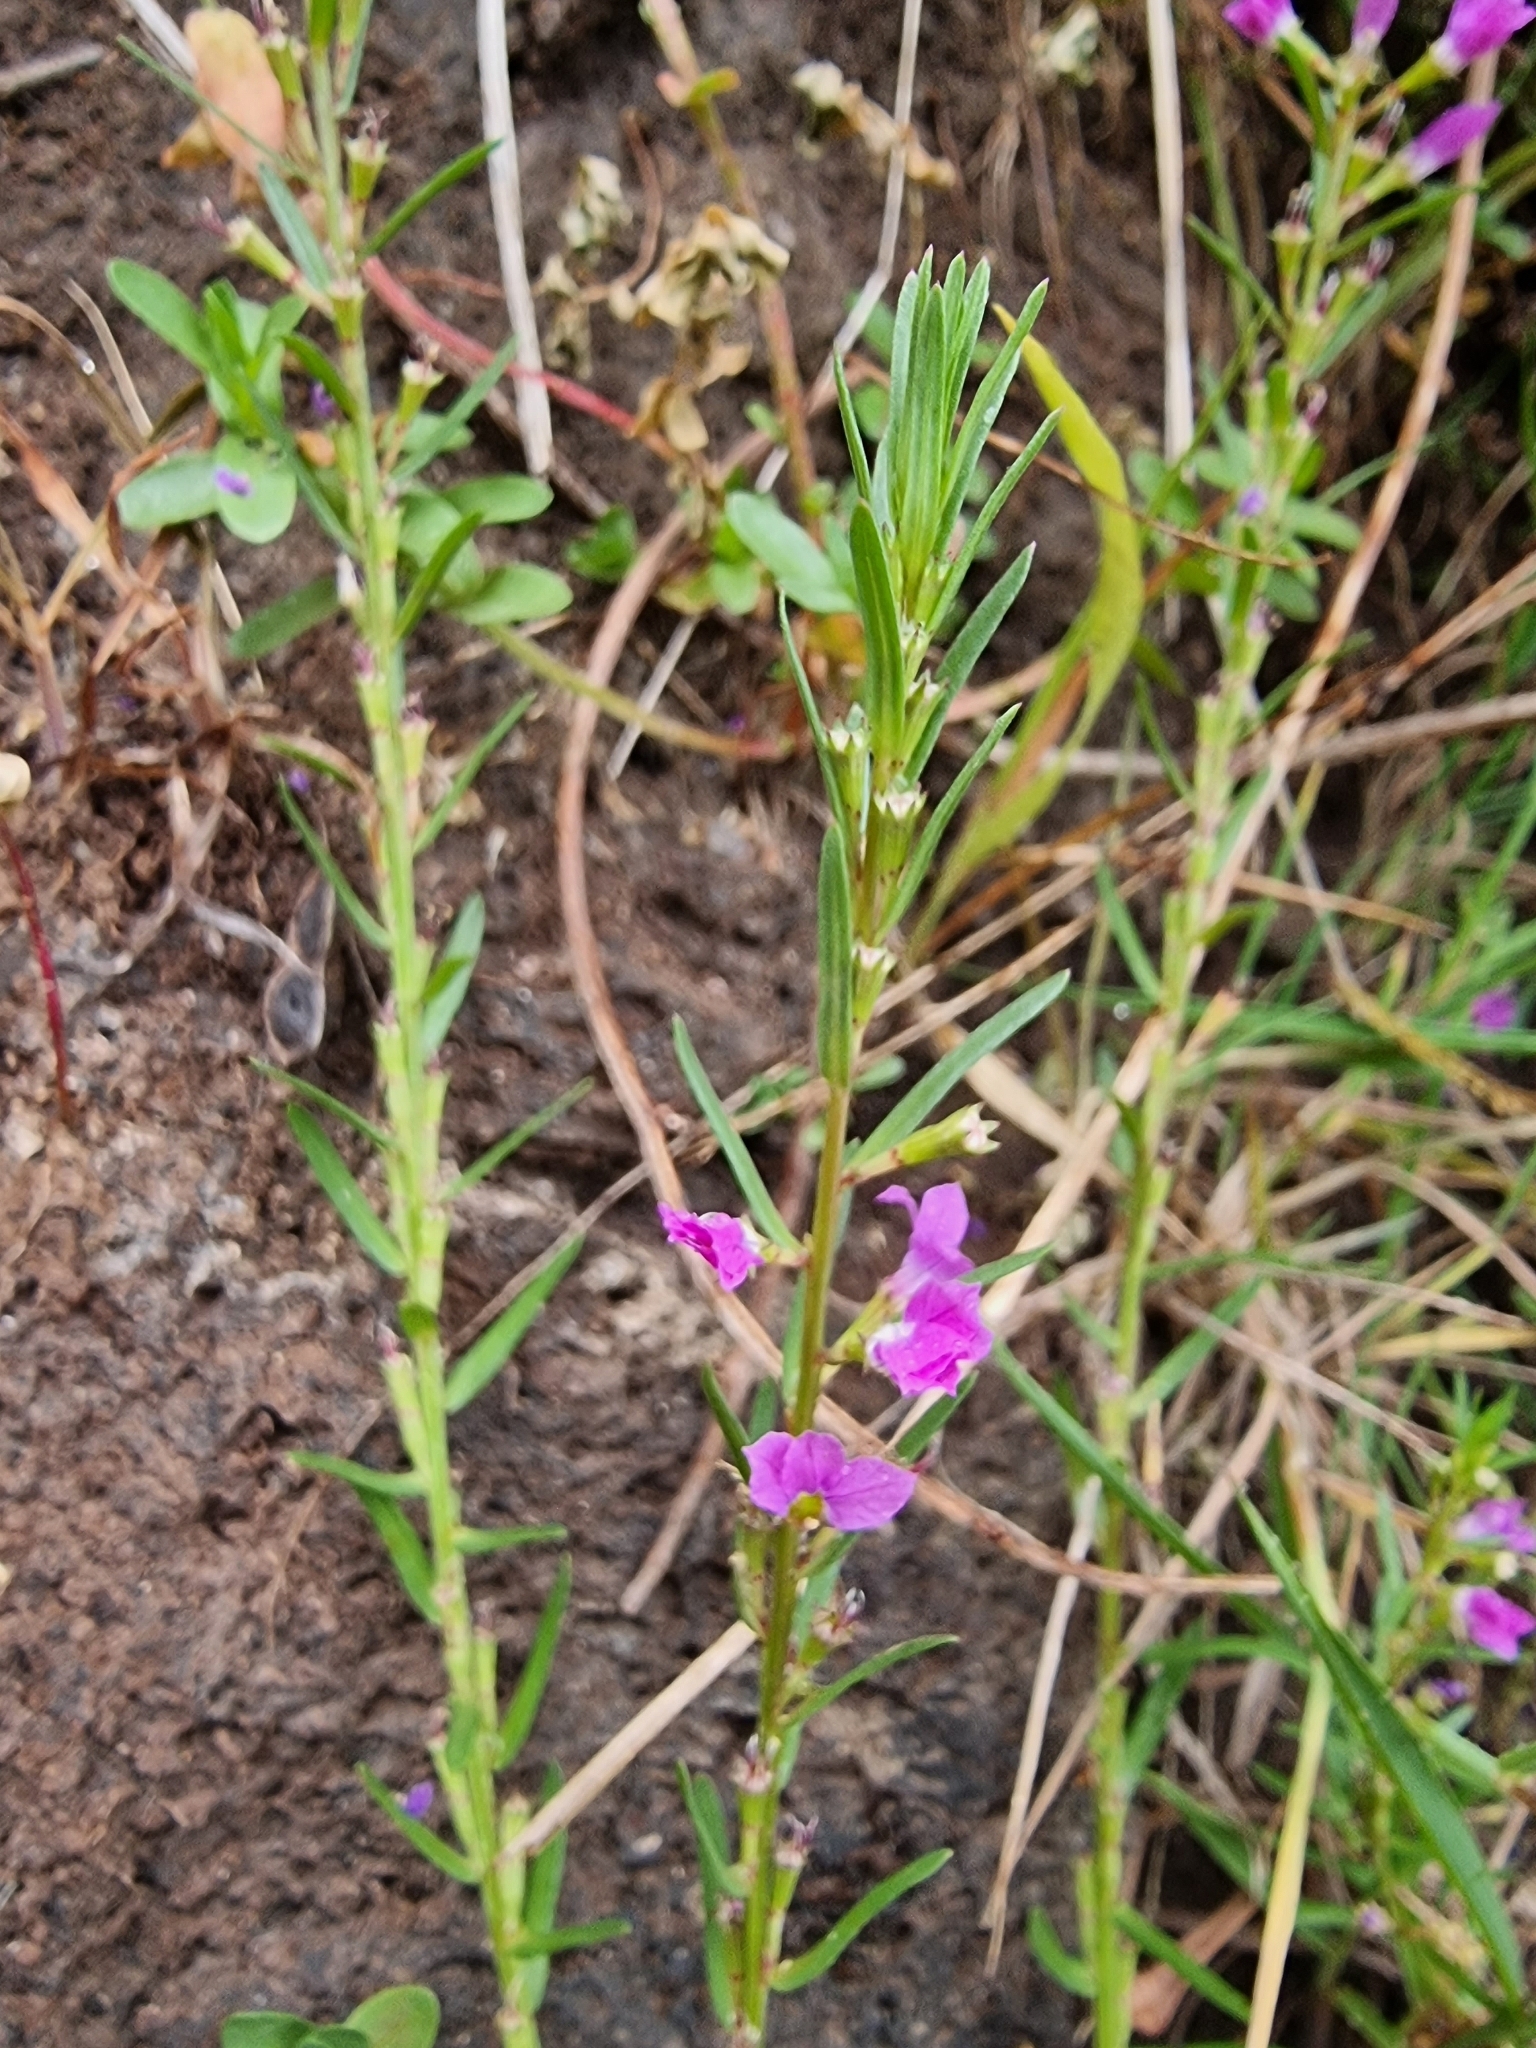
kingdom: Plantae
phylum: Tracheophyta
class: Magnoliopsida
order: Myrtales
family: Lythraceae
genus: Lythrum
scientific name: Lythrum junceum
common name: False grass-poly
